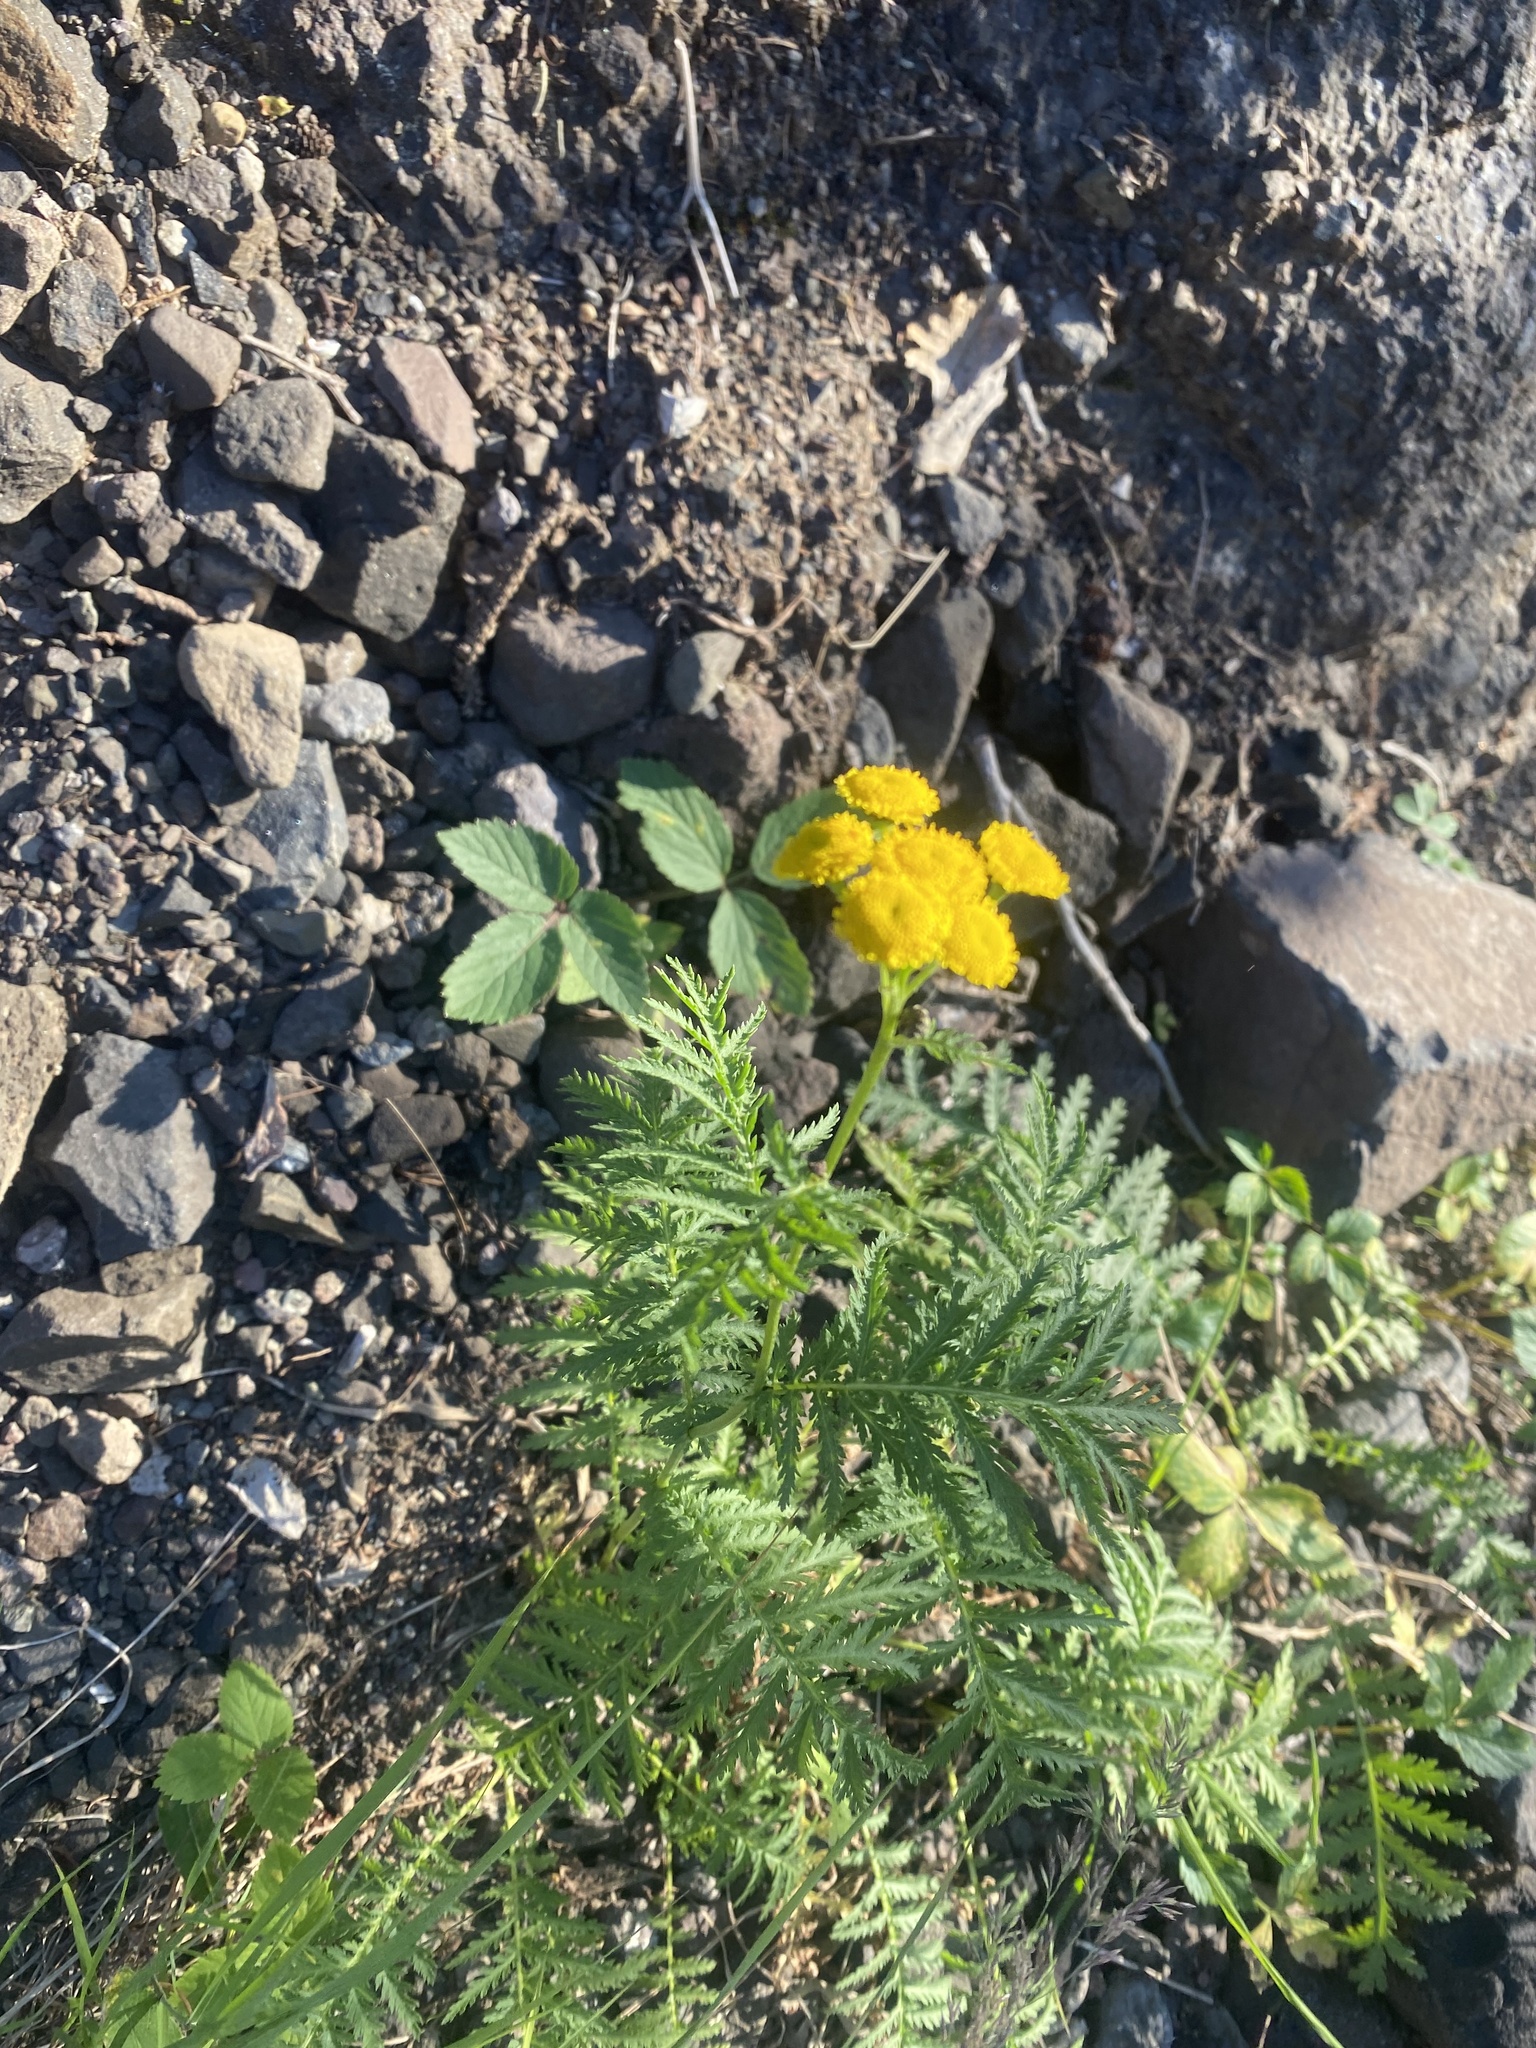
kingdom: Plantae
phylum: Tracheophyta
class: Magnoliopsida
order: Asterales
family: Asteraceae
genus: Tanacetum
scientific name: Tanacetum vulgare
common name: Common tansy
